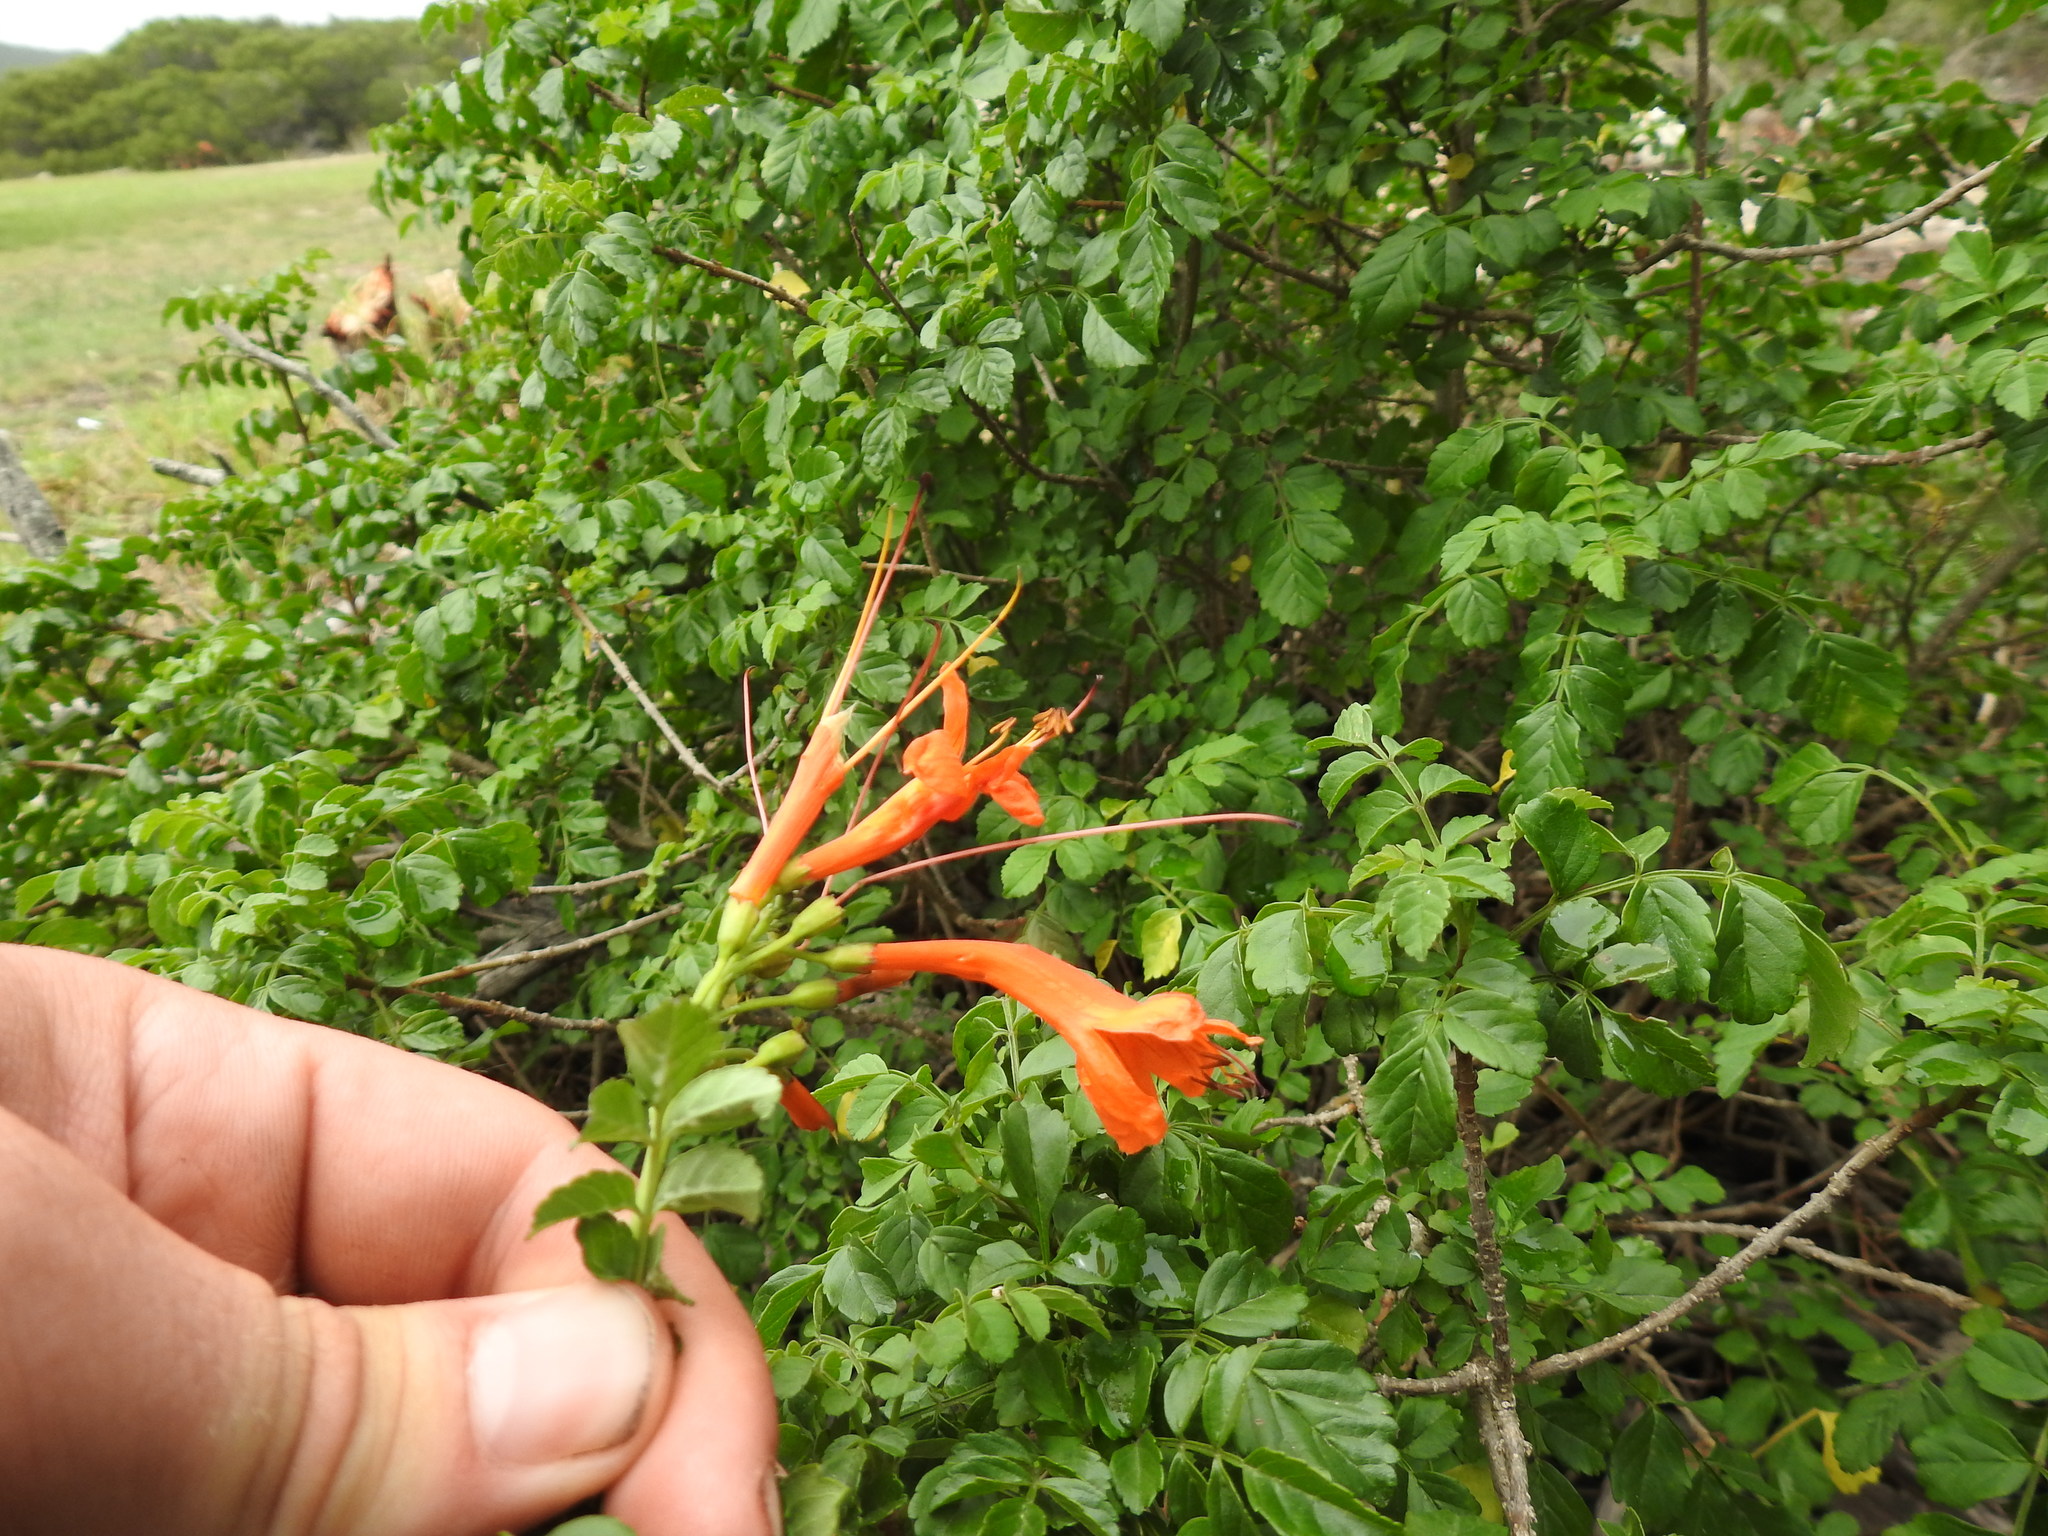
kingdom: Plantae
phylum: Tracheophyta
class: Magnoliopsida
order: Lamiales
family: Bignoniaceae
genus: Tecomaria
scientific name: Tecomaria capensis
